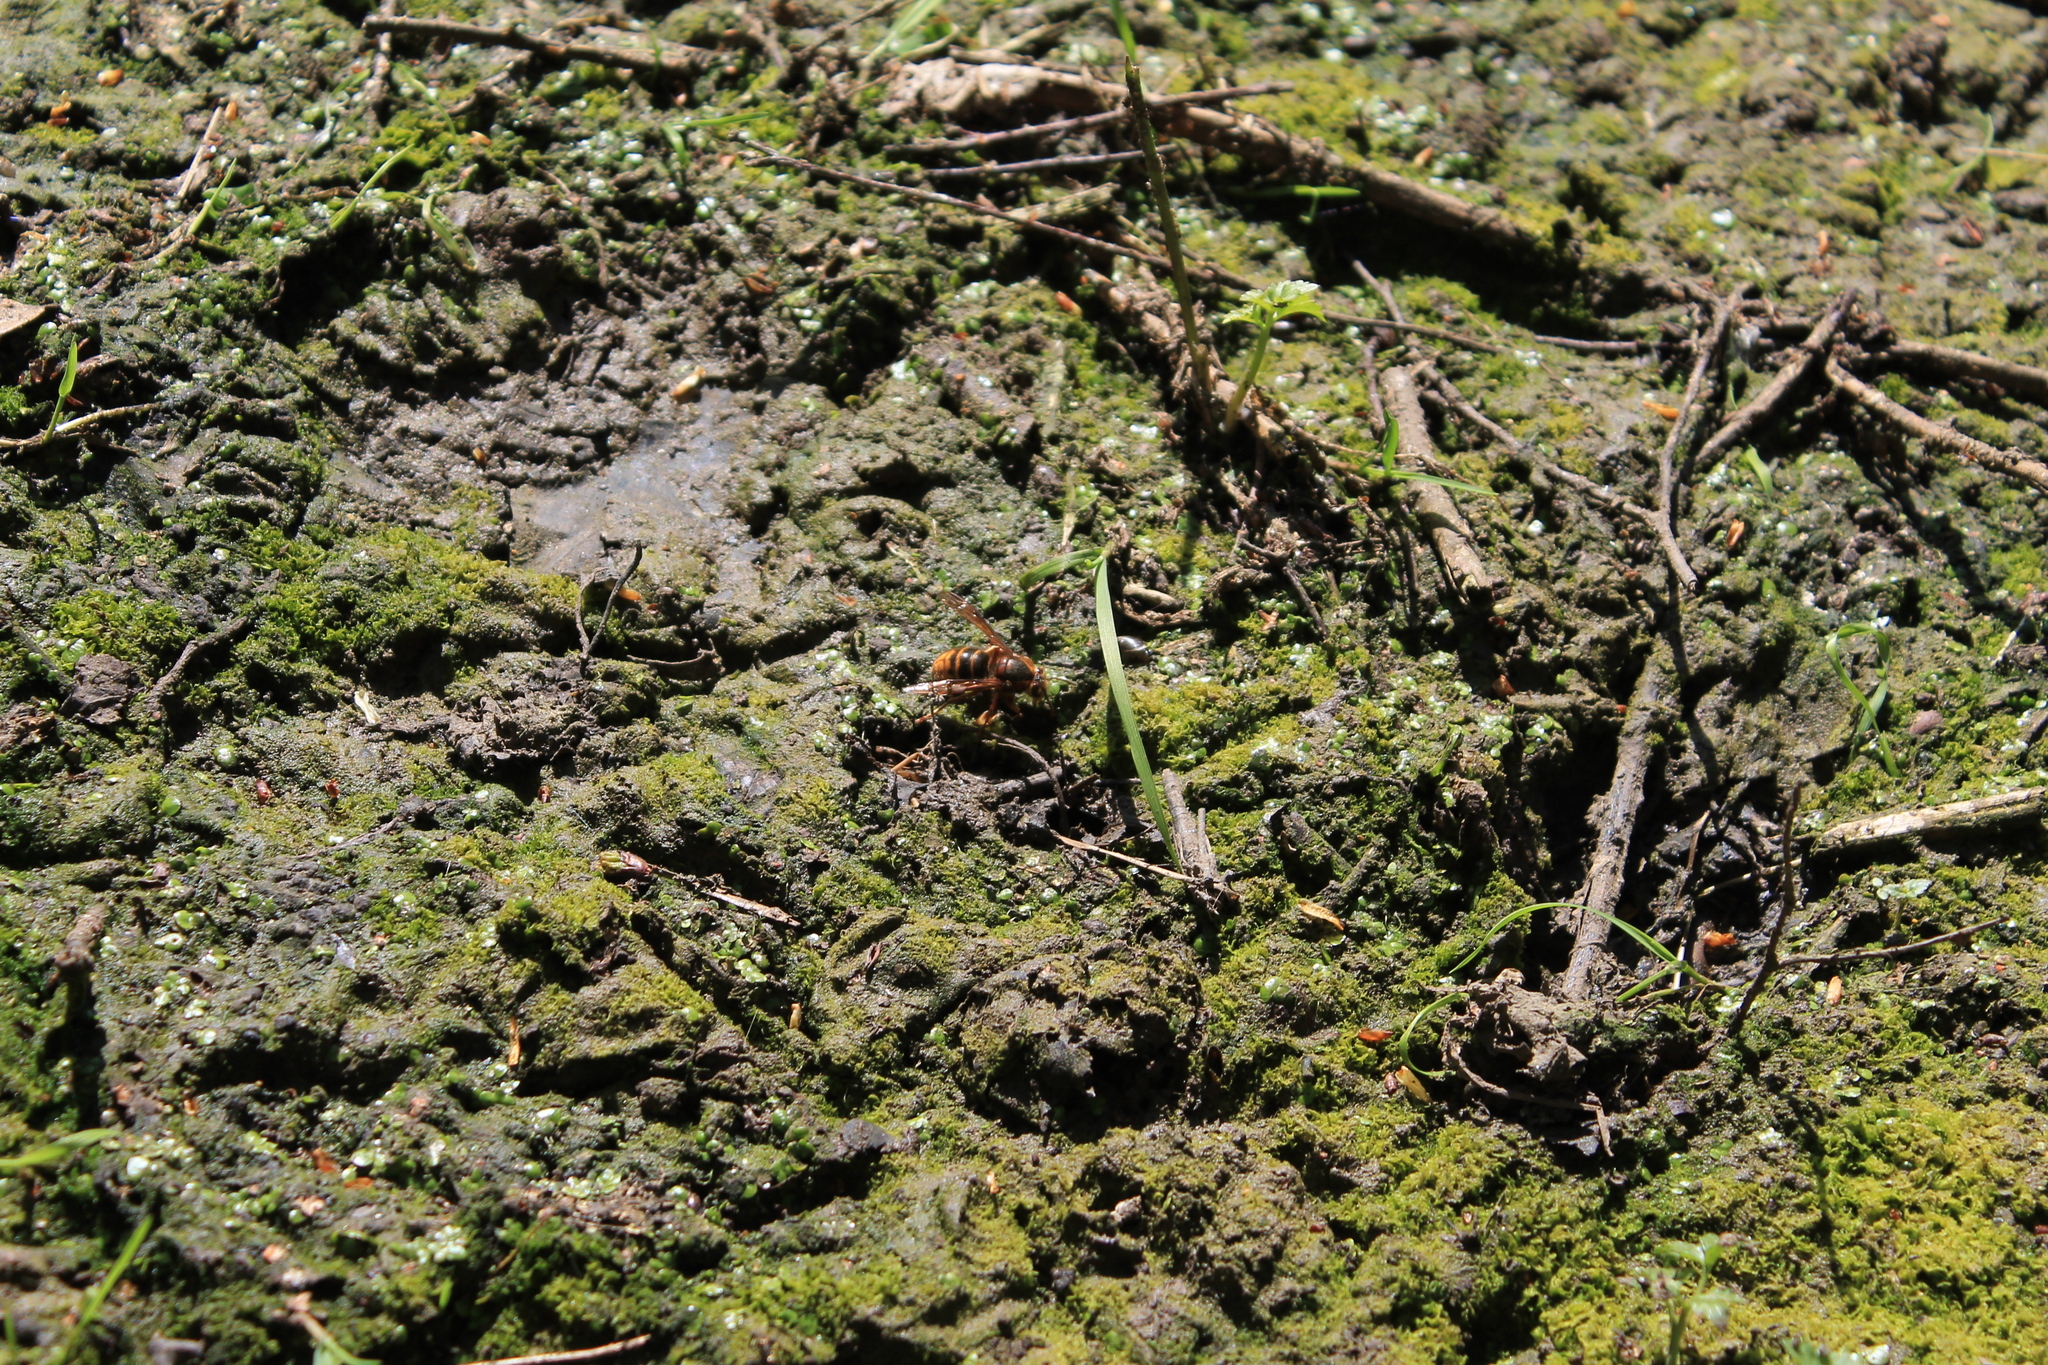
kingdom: Animalia
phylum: Arthropoda
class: Insecta
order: Hymenoptera
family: Vespidae
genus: Vespa
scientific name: Vespa crabro
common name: Hornet
